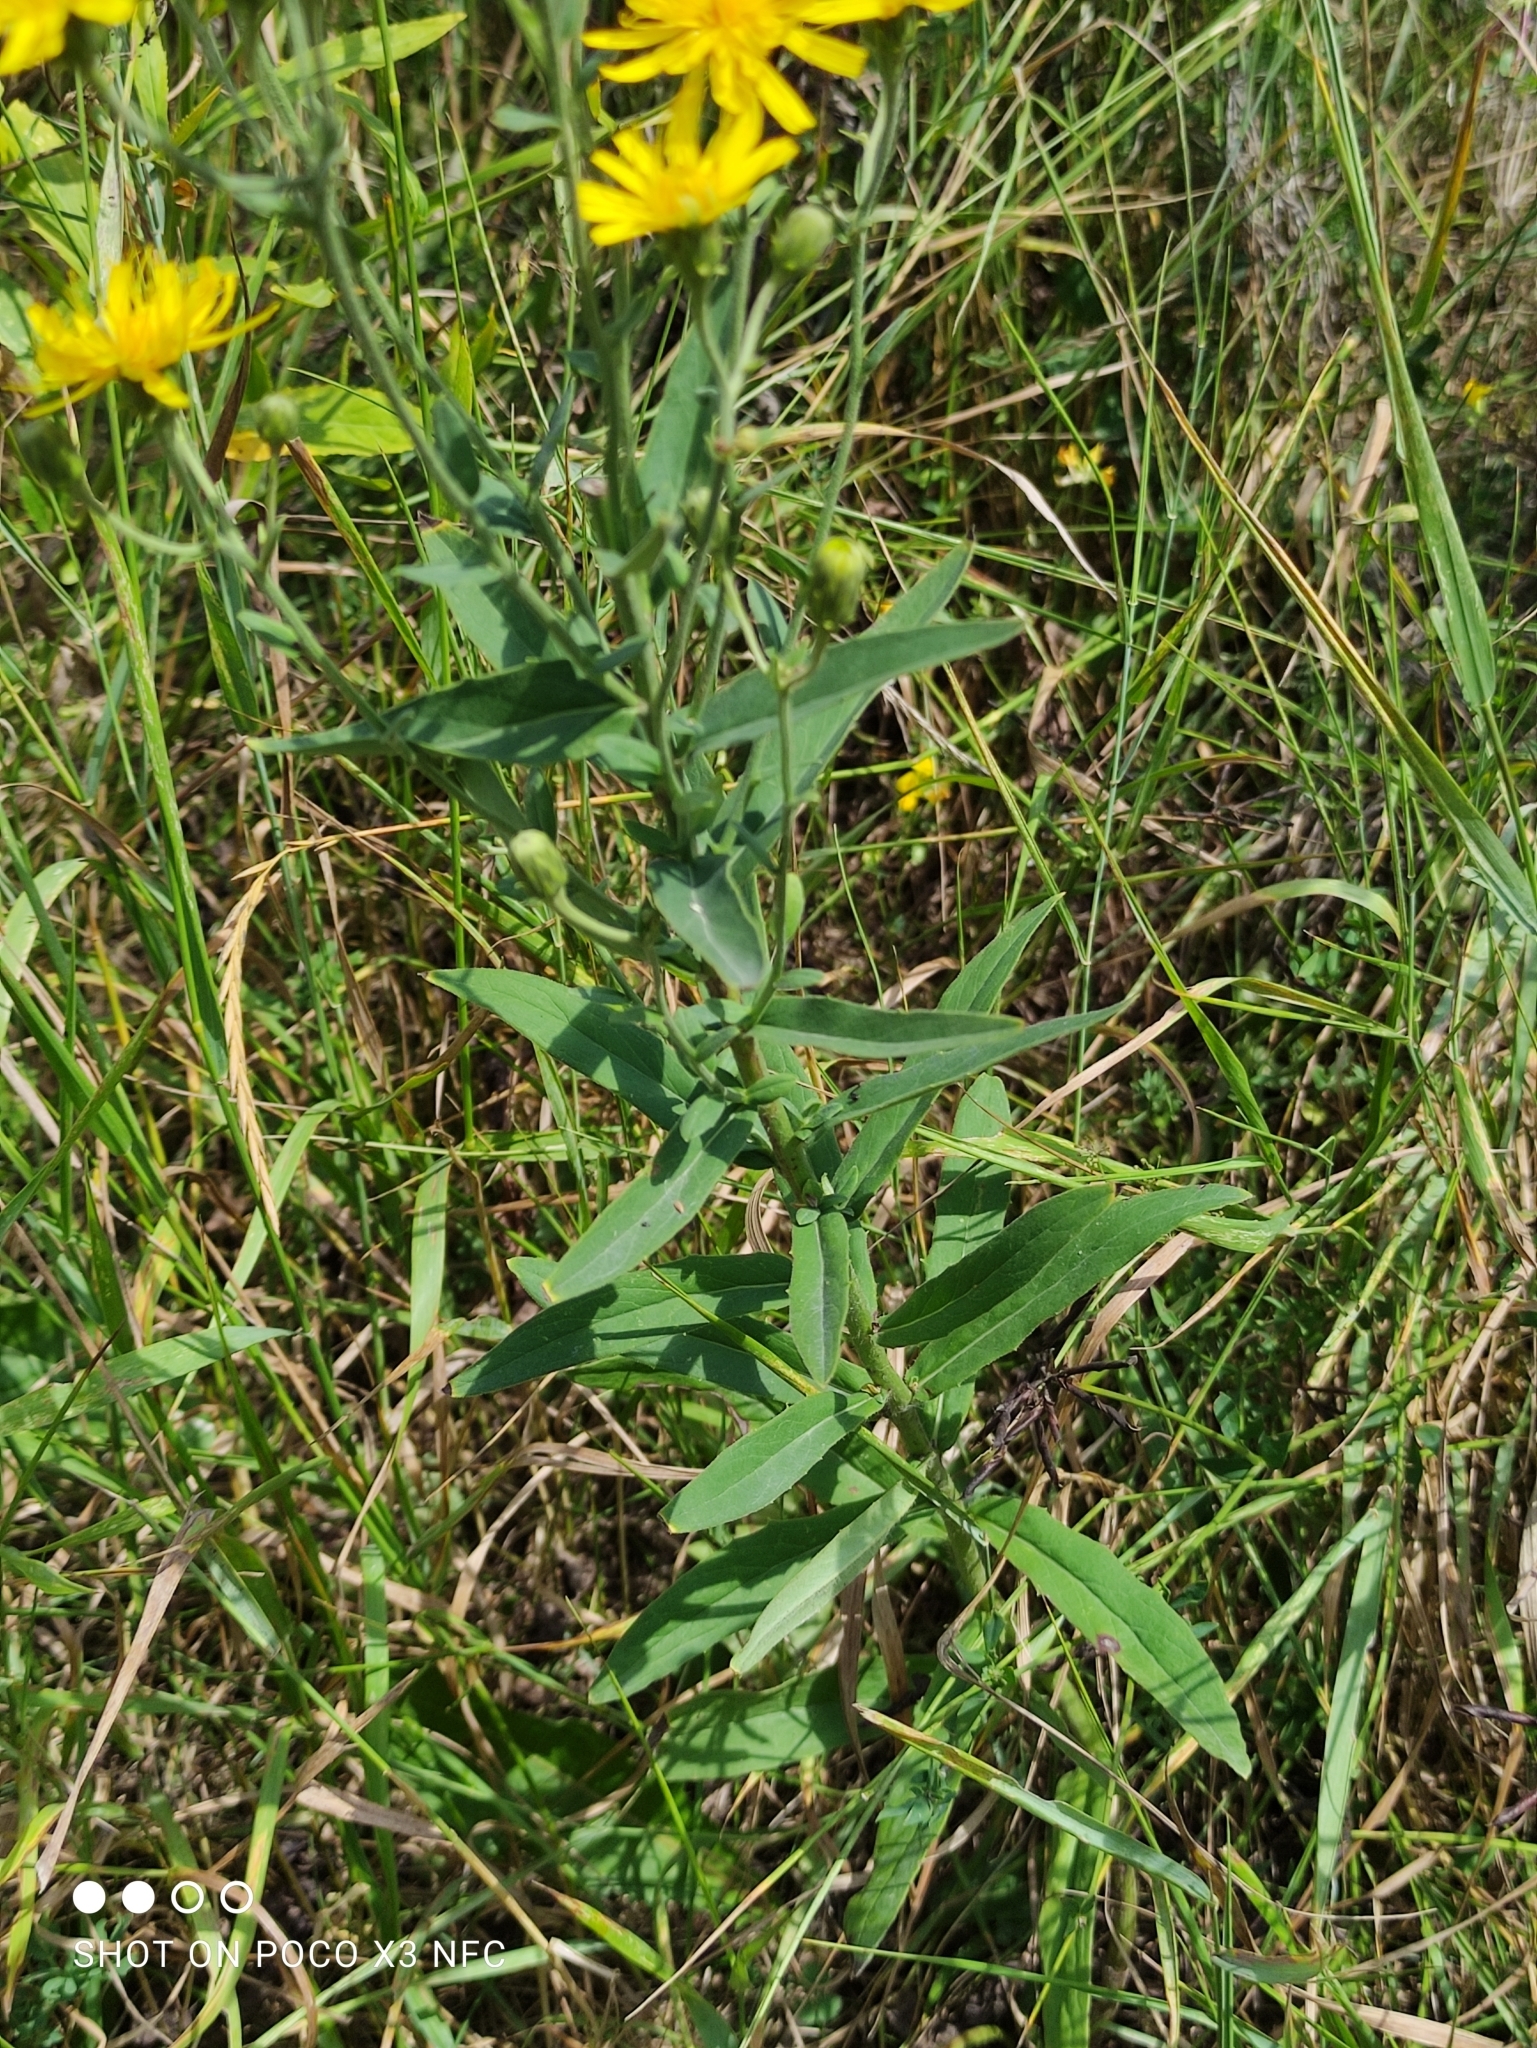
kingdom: Plantae
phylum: Tracheophyta
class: Magnoliopsida
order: Asterales
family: Asteraceae
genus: Hieracium
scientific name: Hieracium umbellatum
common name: Northern hawkweed
